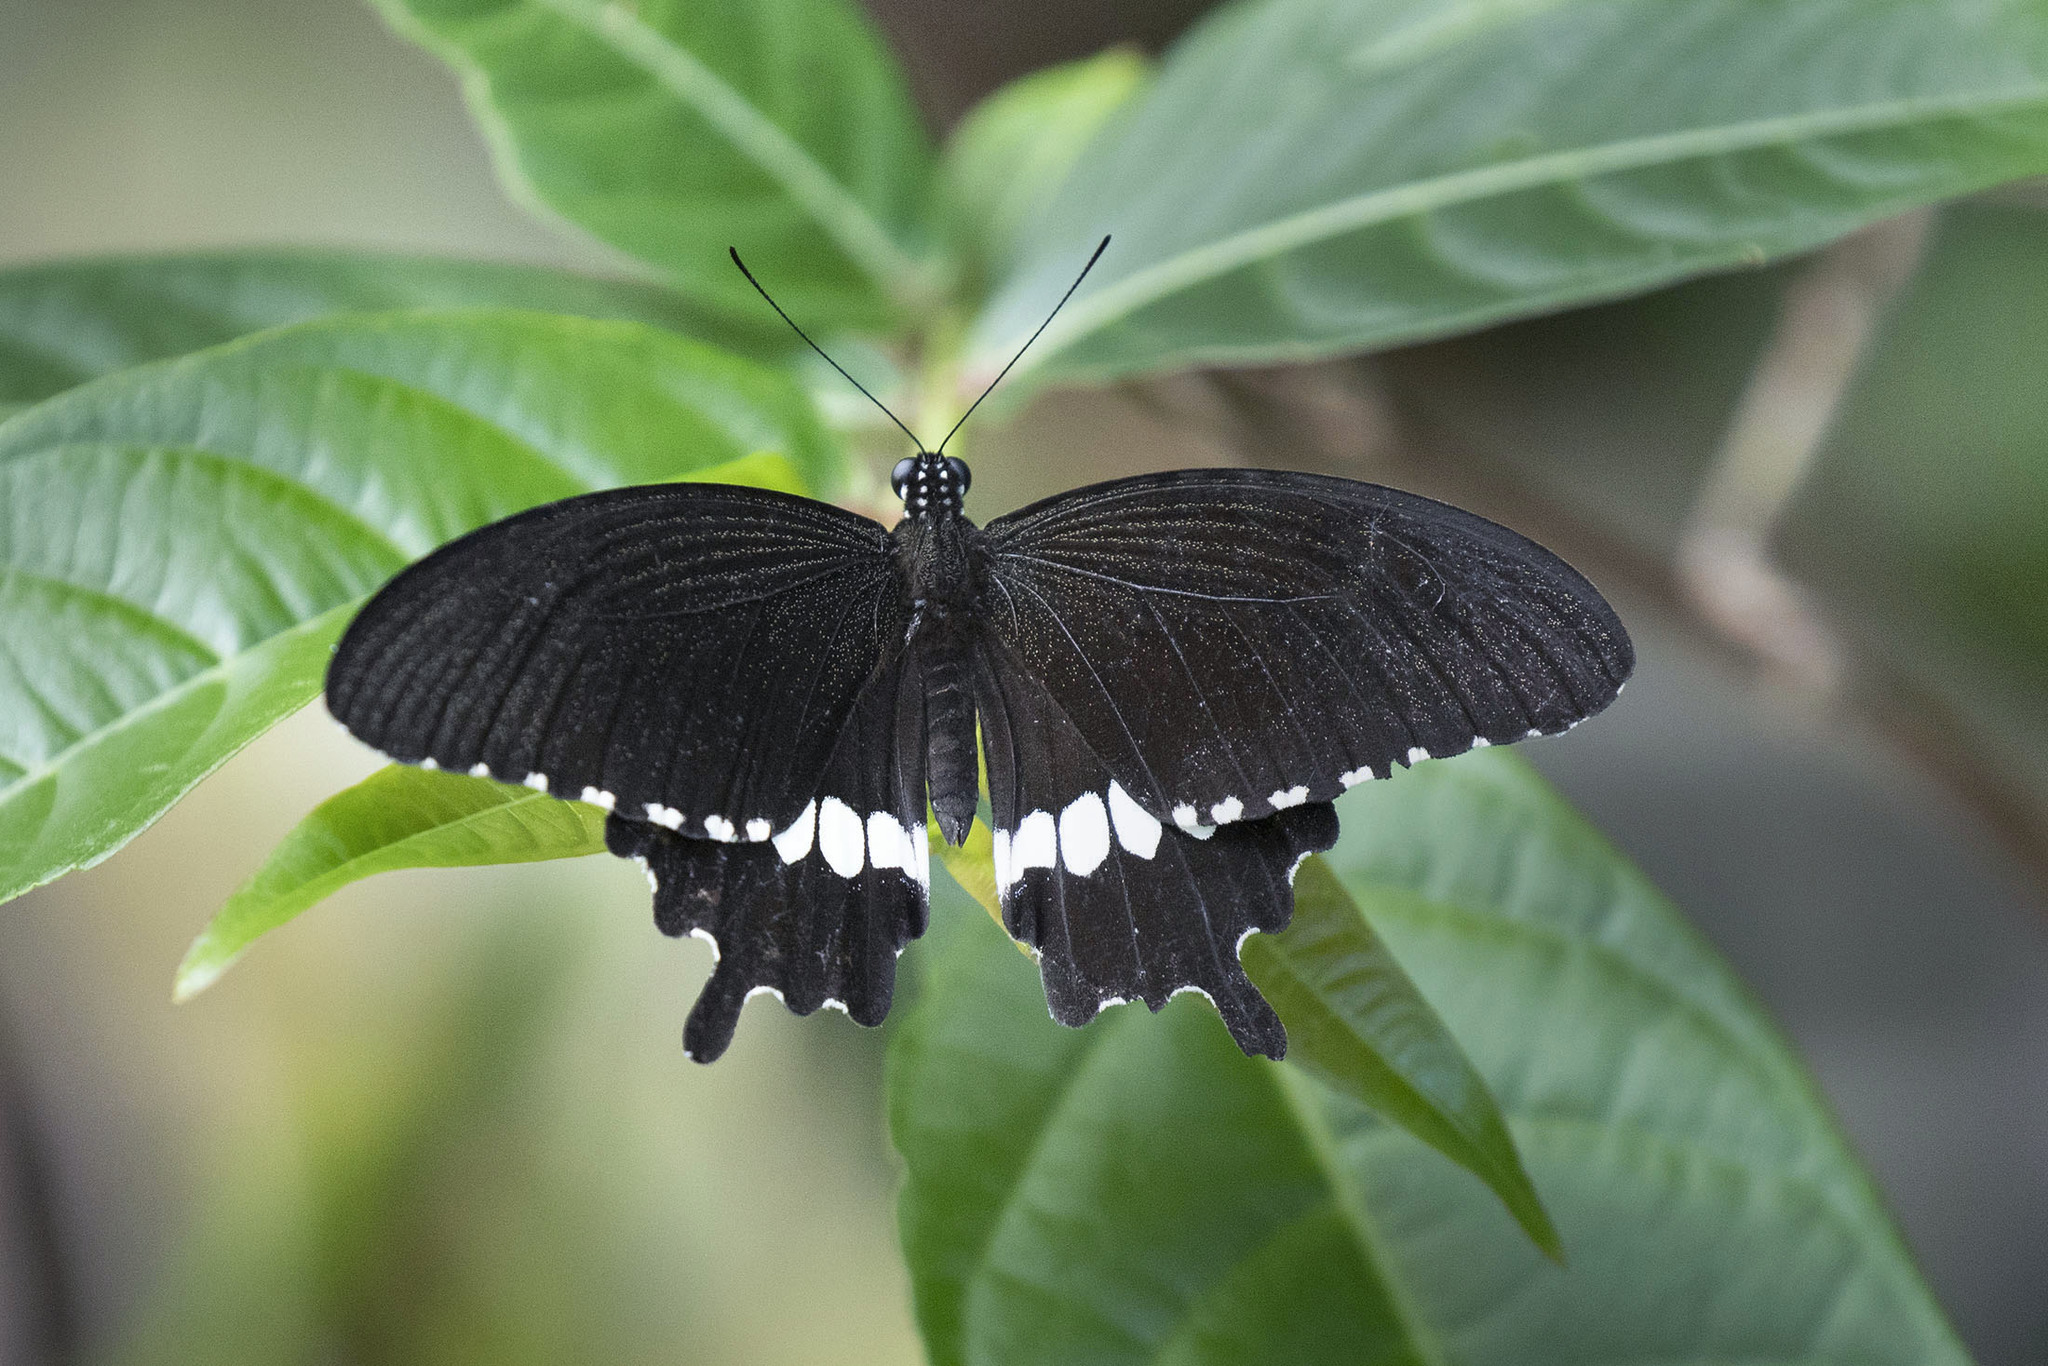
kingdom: Animalia
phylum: Arthropoda
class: Insecta
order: Lepidoptera
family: Papilionidae
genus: Papilio
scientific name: Papilio polytes
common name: Common mormon
